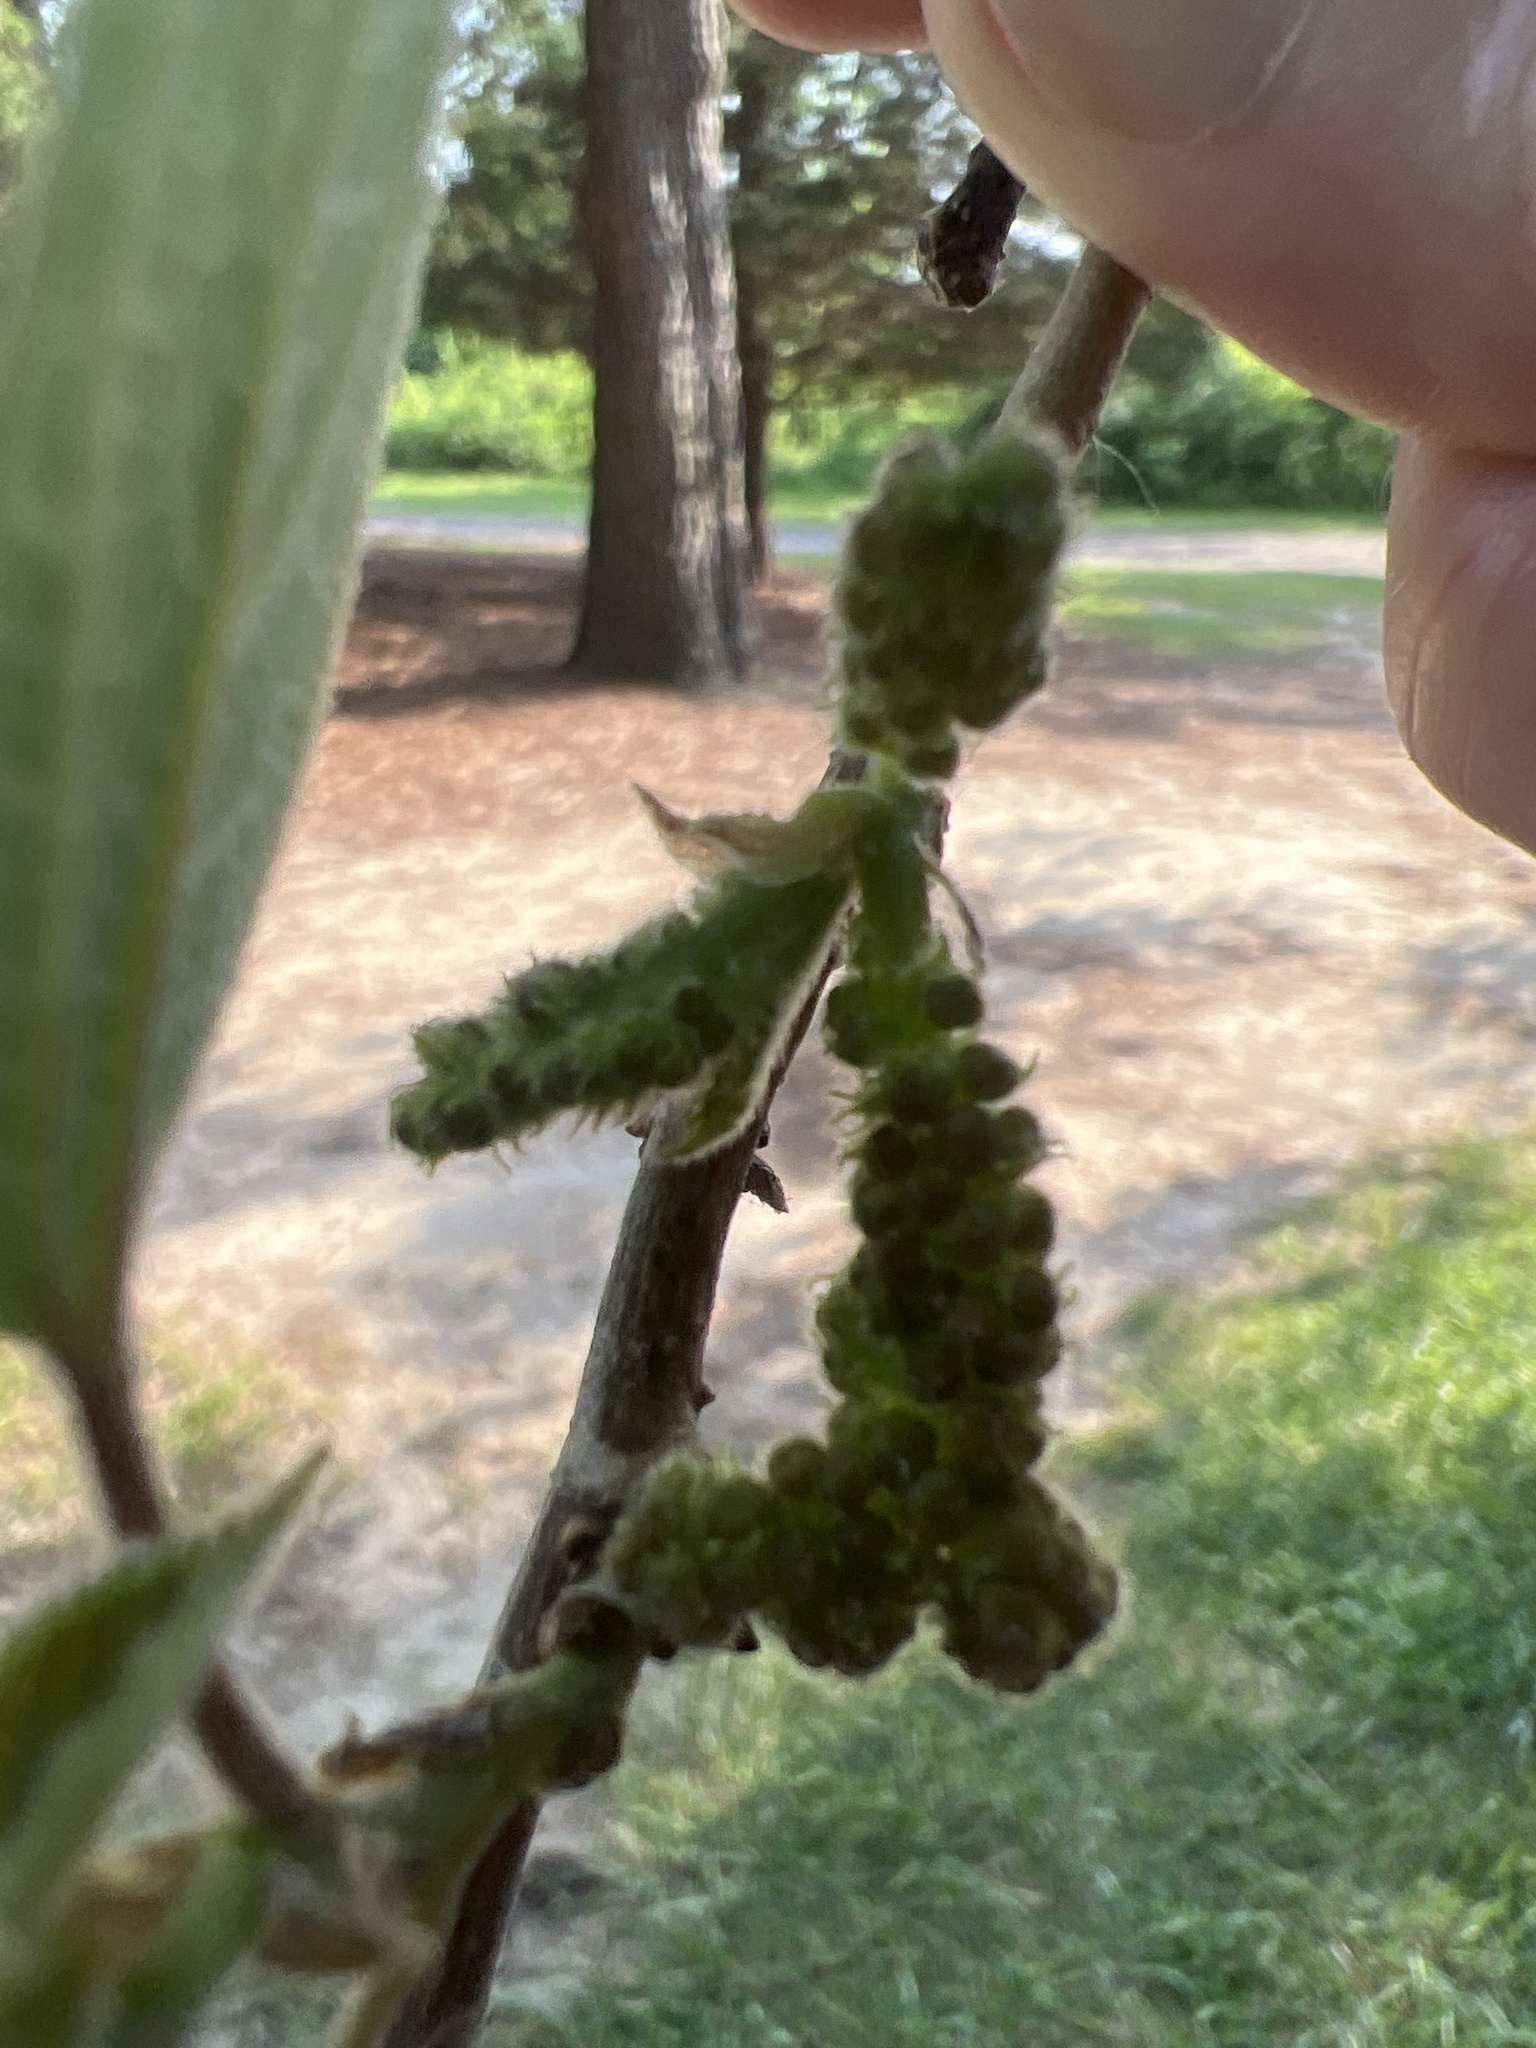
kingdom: Plantae
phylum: Tracheophyta
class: Magnoliopsida
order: Rosales
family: Moraceae
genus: Broussonetia
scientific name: Broussonetia papyrifera
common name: Paper mulberry
